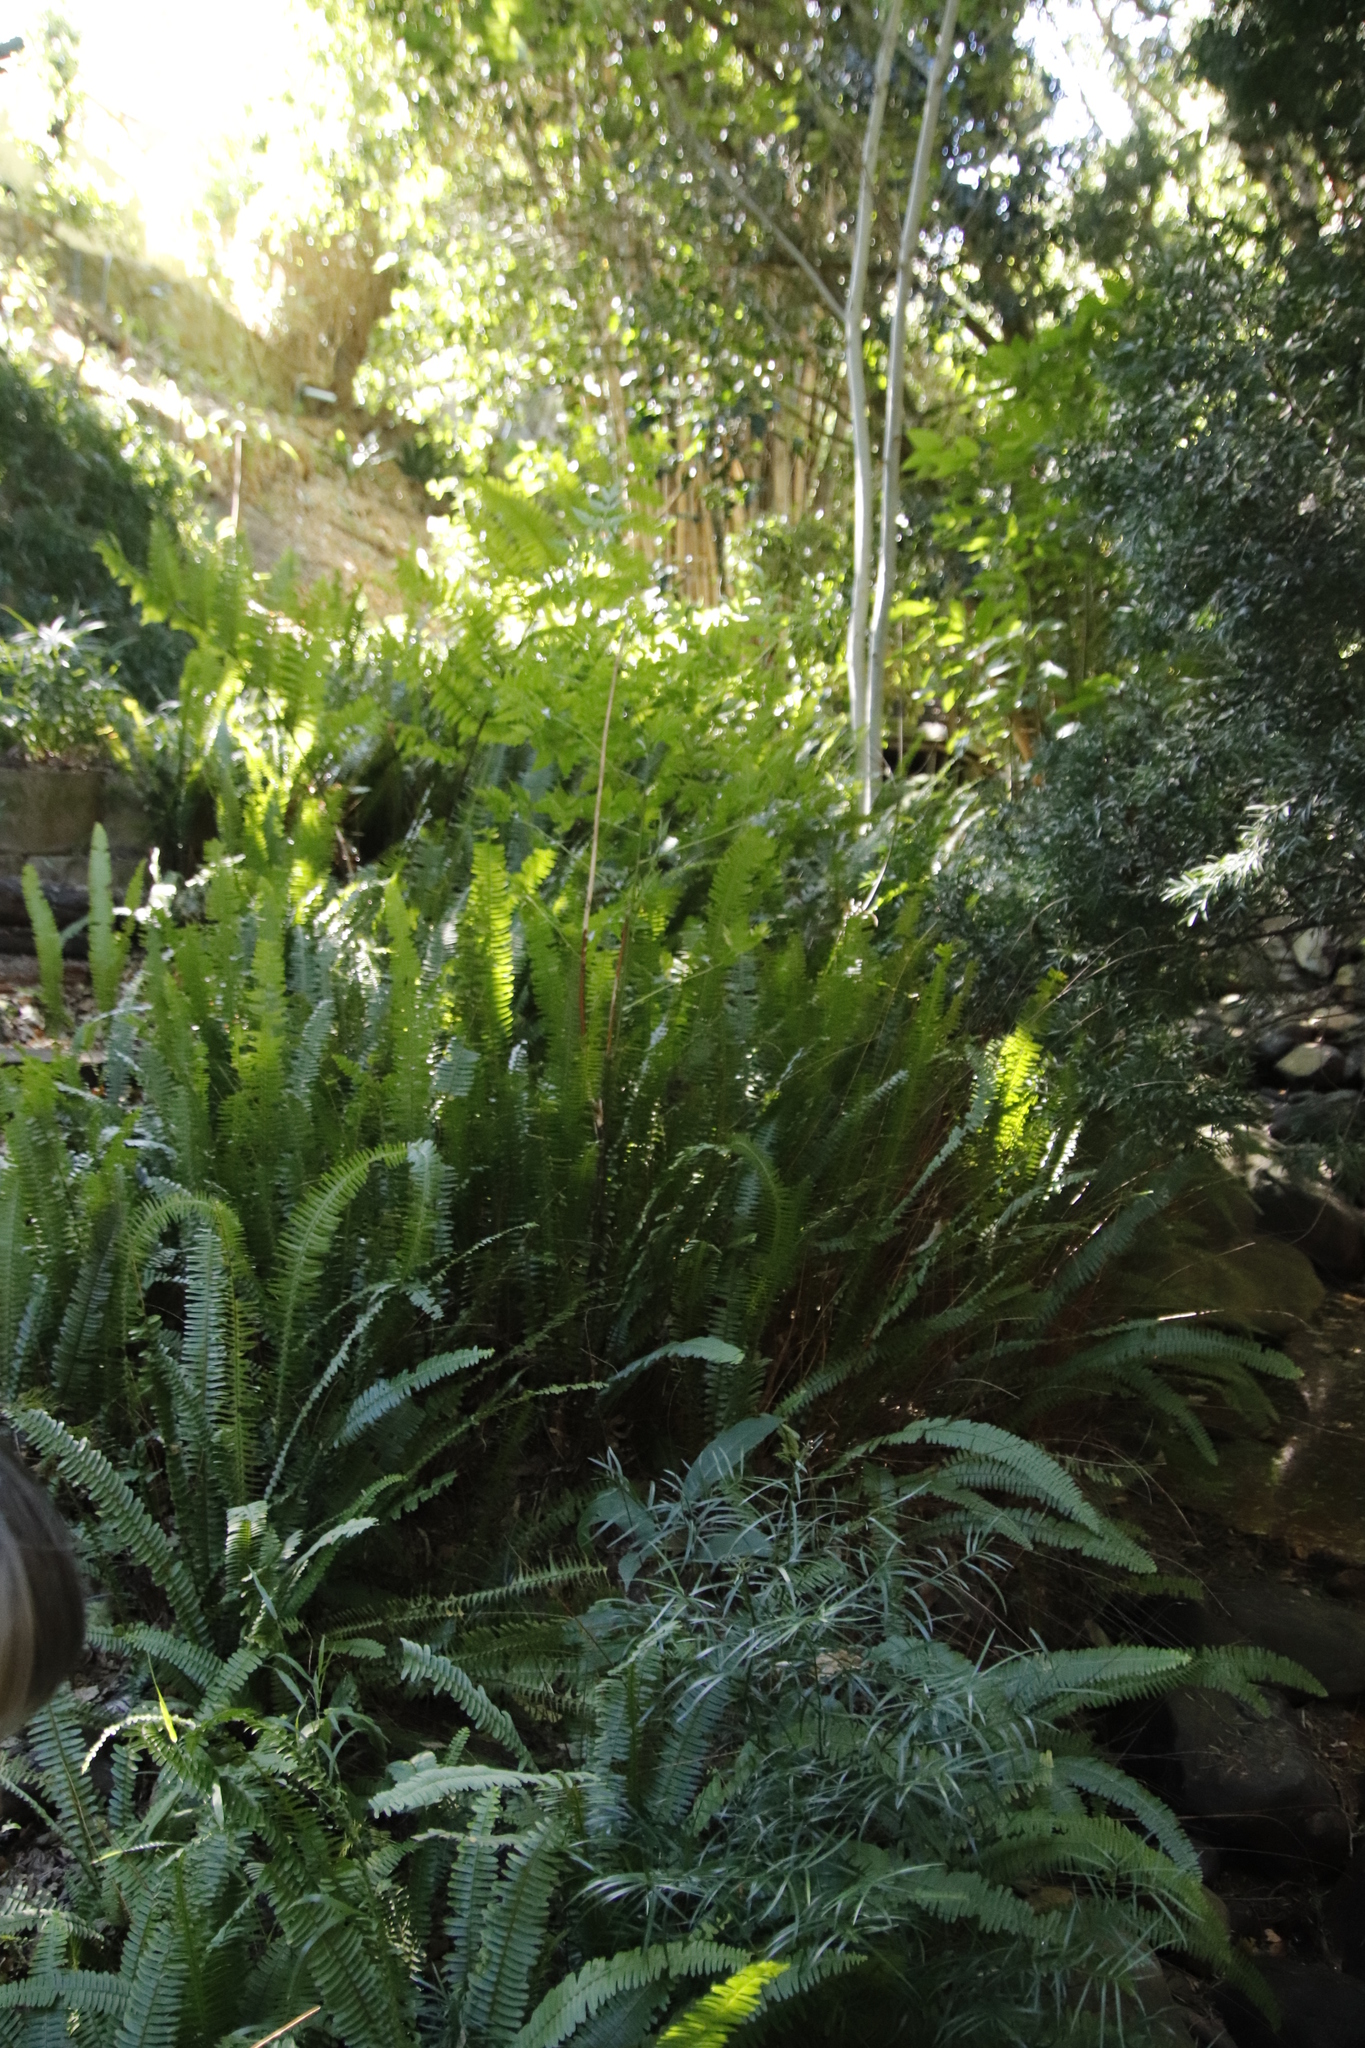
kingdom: Plantae
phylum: Tracheophyta
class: Polypodiopsida
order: Polypodiales
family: Nephrolepidaceae
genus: Nephrolepis
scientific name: Nephrolepis cordifolia
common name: Narrow swordfern
